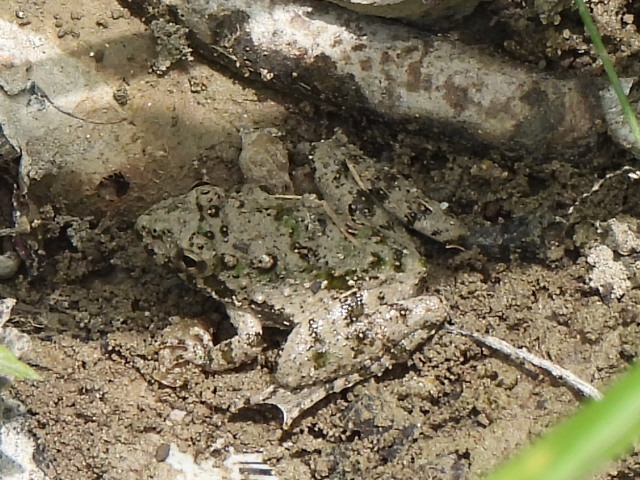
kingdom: Animalia
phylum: Chordata
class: Amphibia
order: Anura
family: Hylidae
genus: Acris
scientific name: Acris blanchardi
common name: Blanchard's cricket frog
